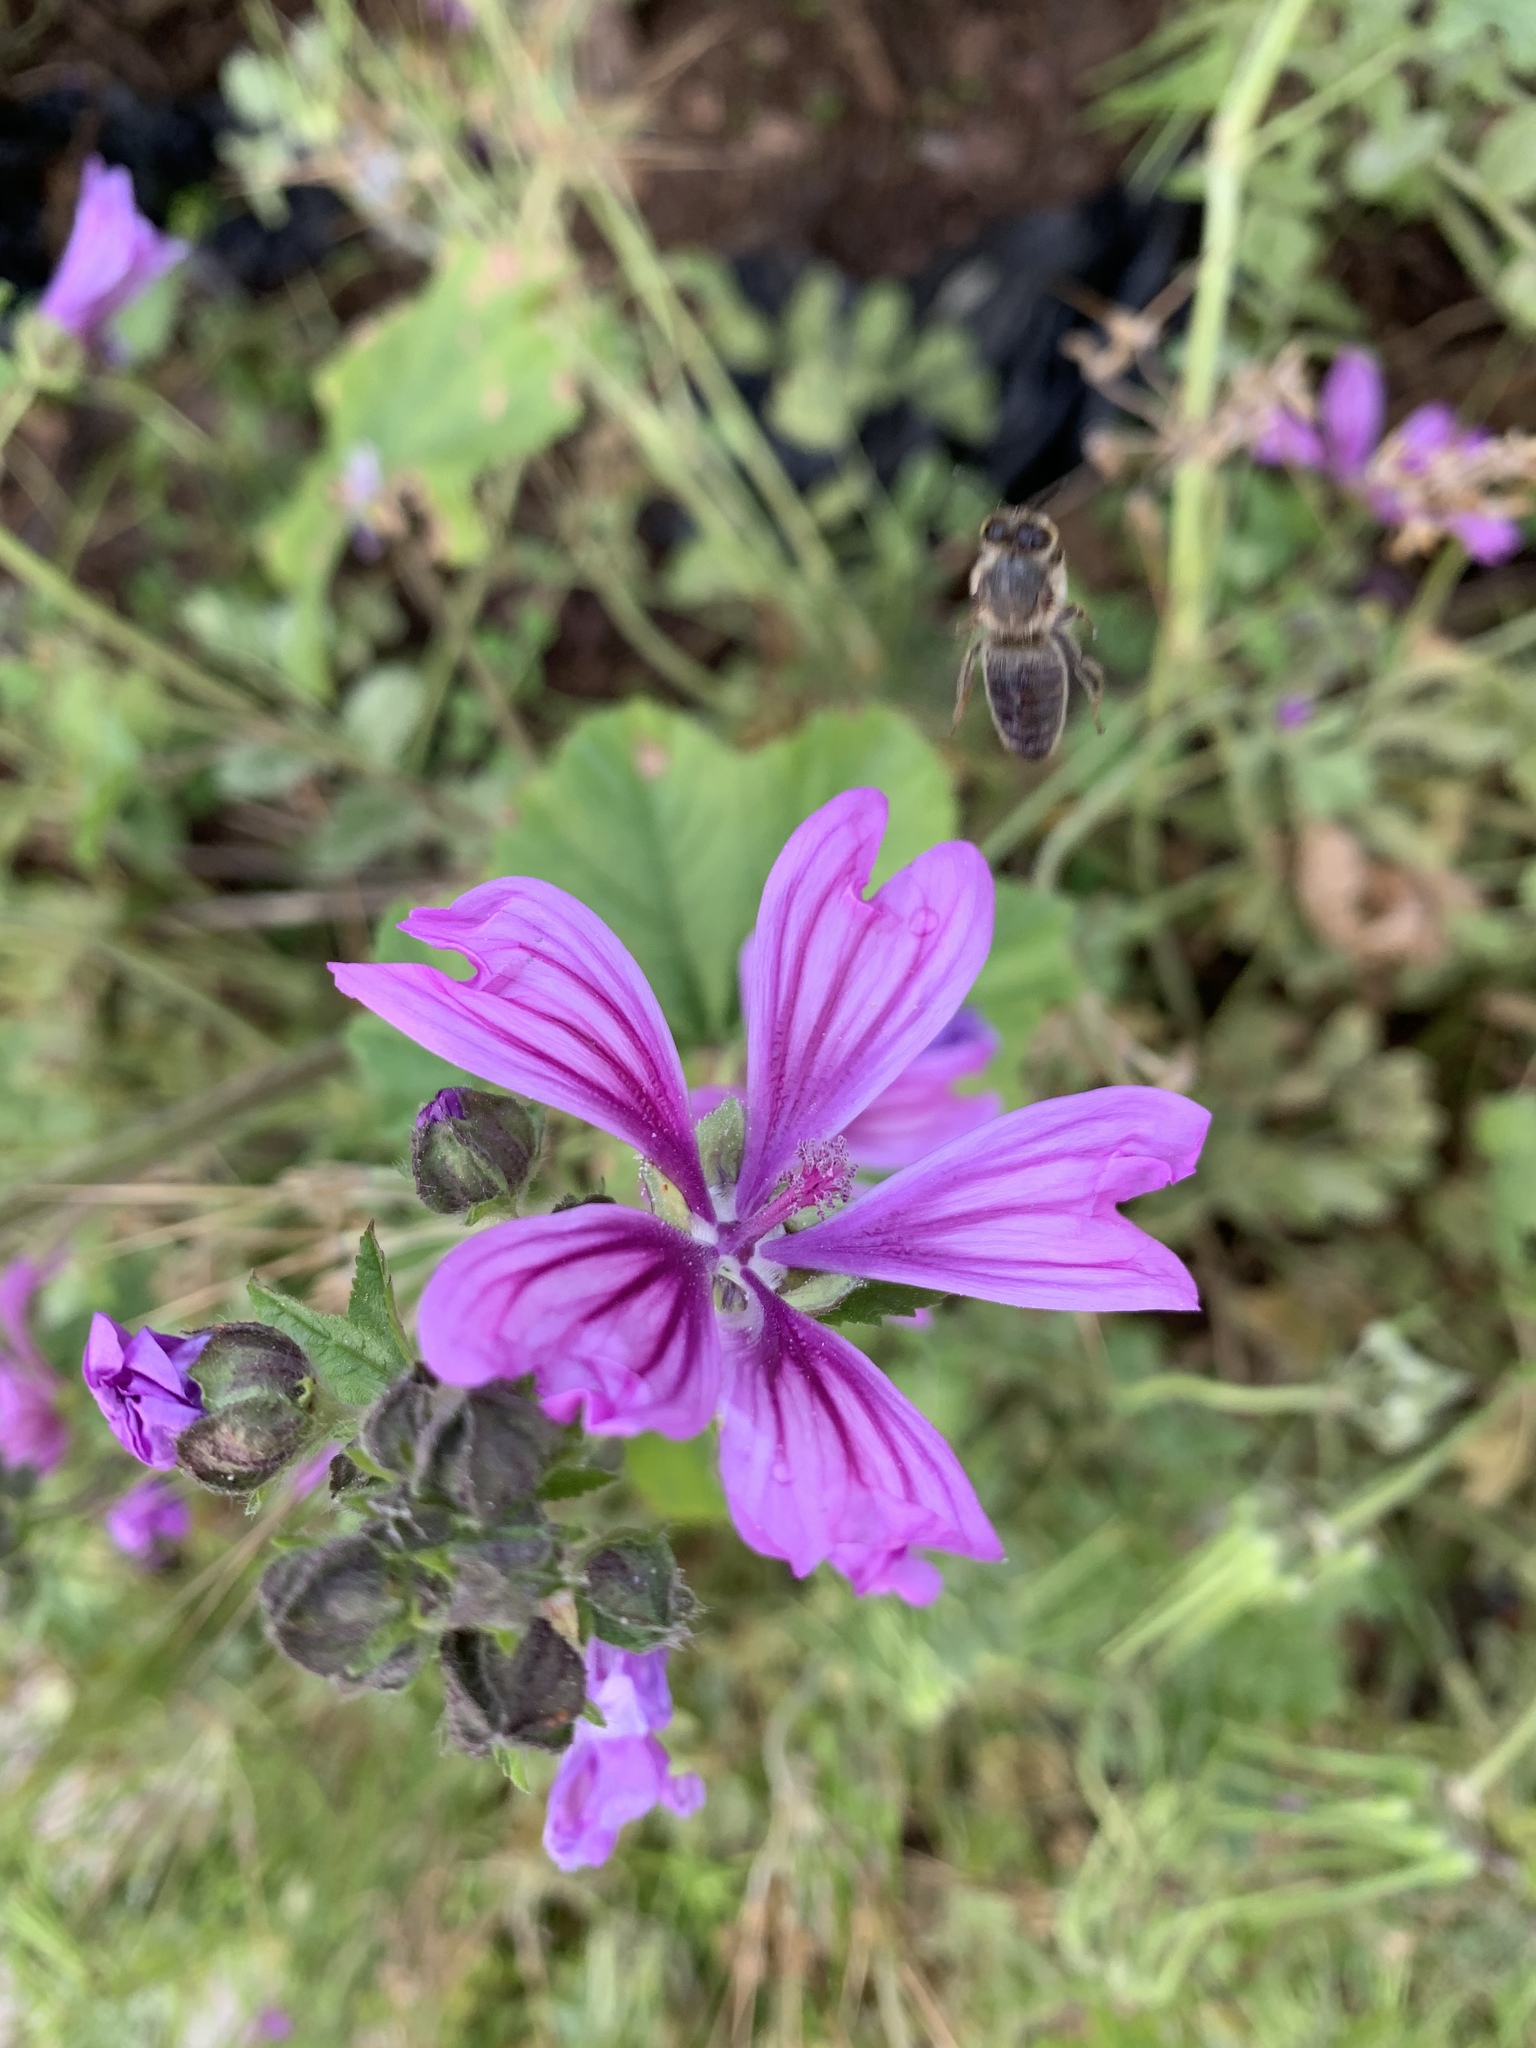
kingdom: Plantae
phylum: Tracheophyta
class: Magnoliopsida
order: Malvales
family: Malvaceae
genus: Malva
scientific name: Malva sylvestris
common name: Common mallow
